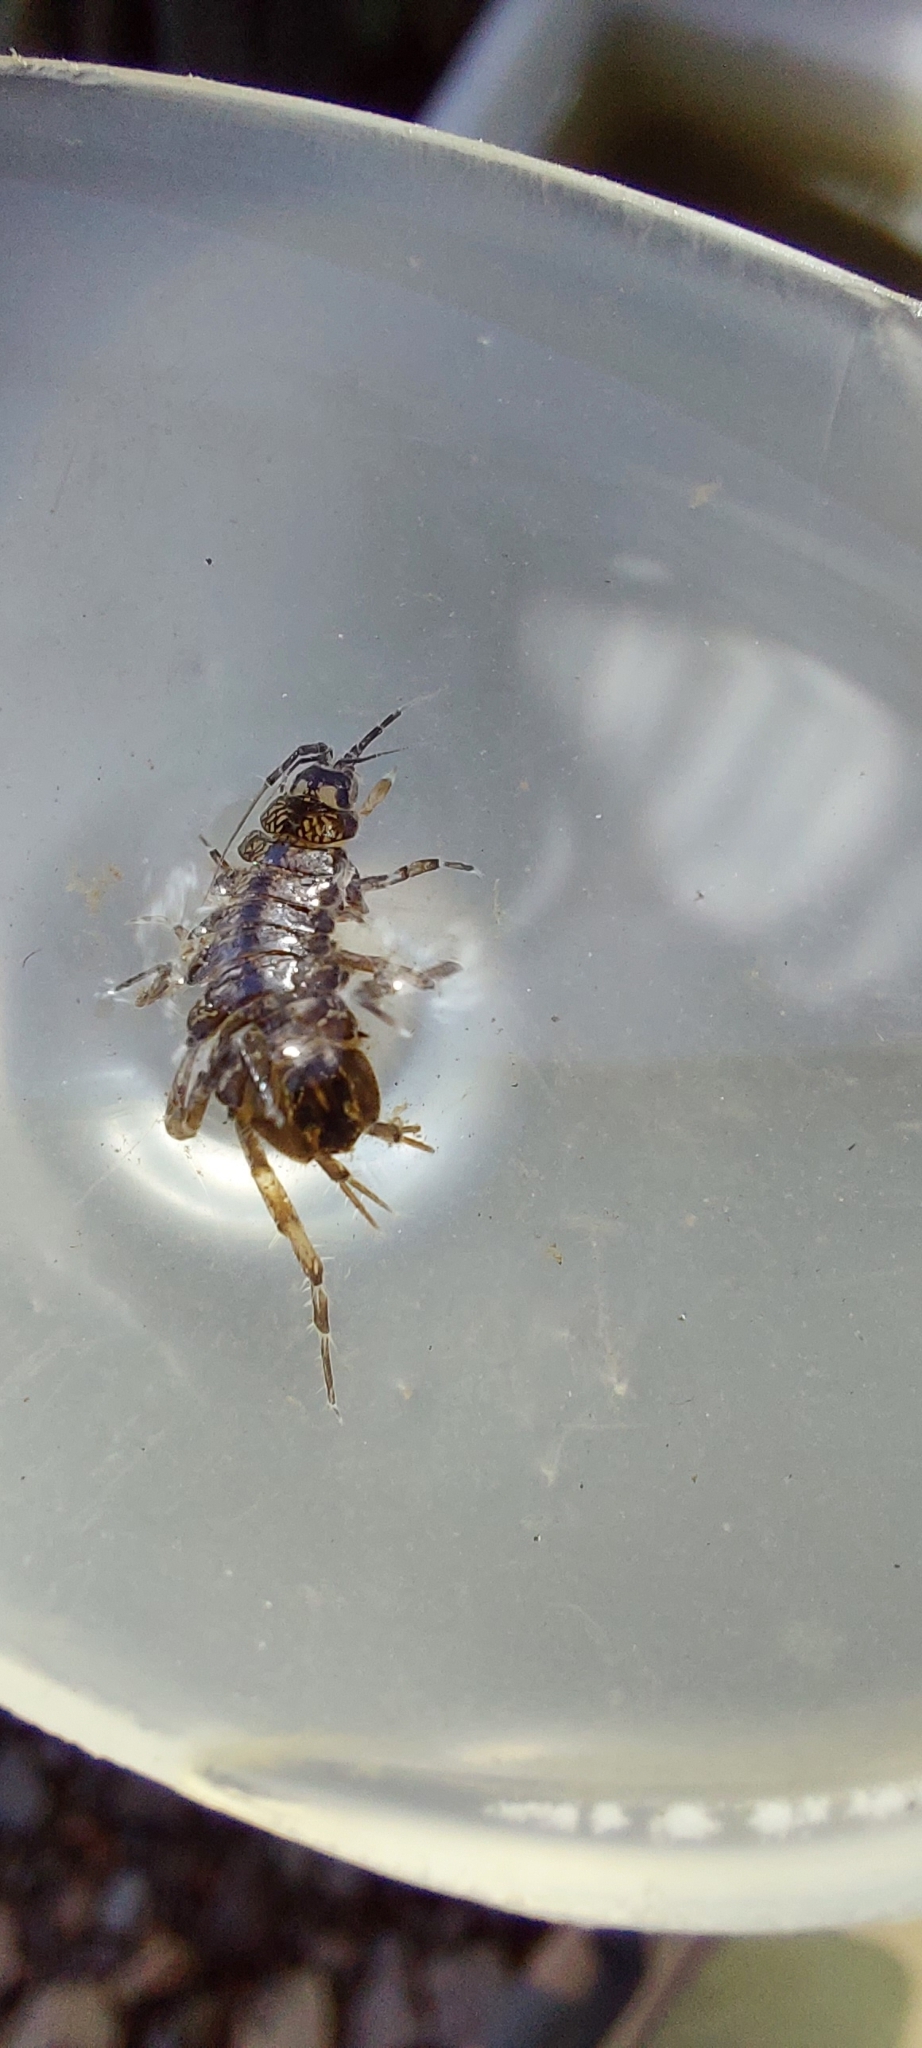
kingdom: Animalia
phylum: Arthropoda
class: Malacostraca
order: Isopoda
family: Asellidae
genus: Asellus
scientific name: Asellus aquaticus
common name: Water hog lice/slaters
